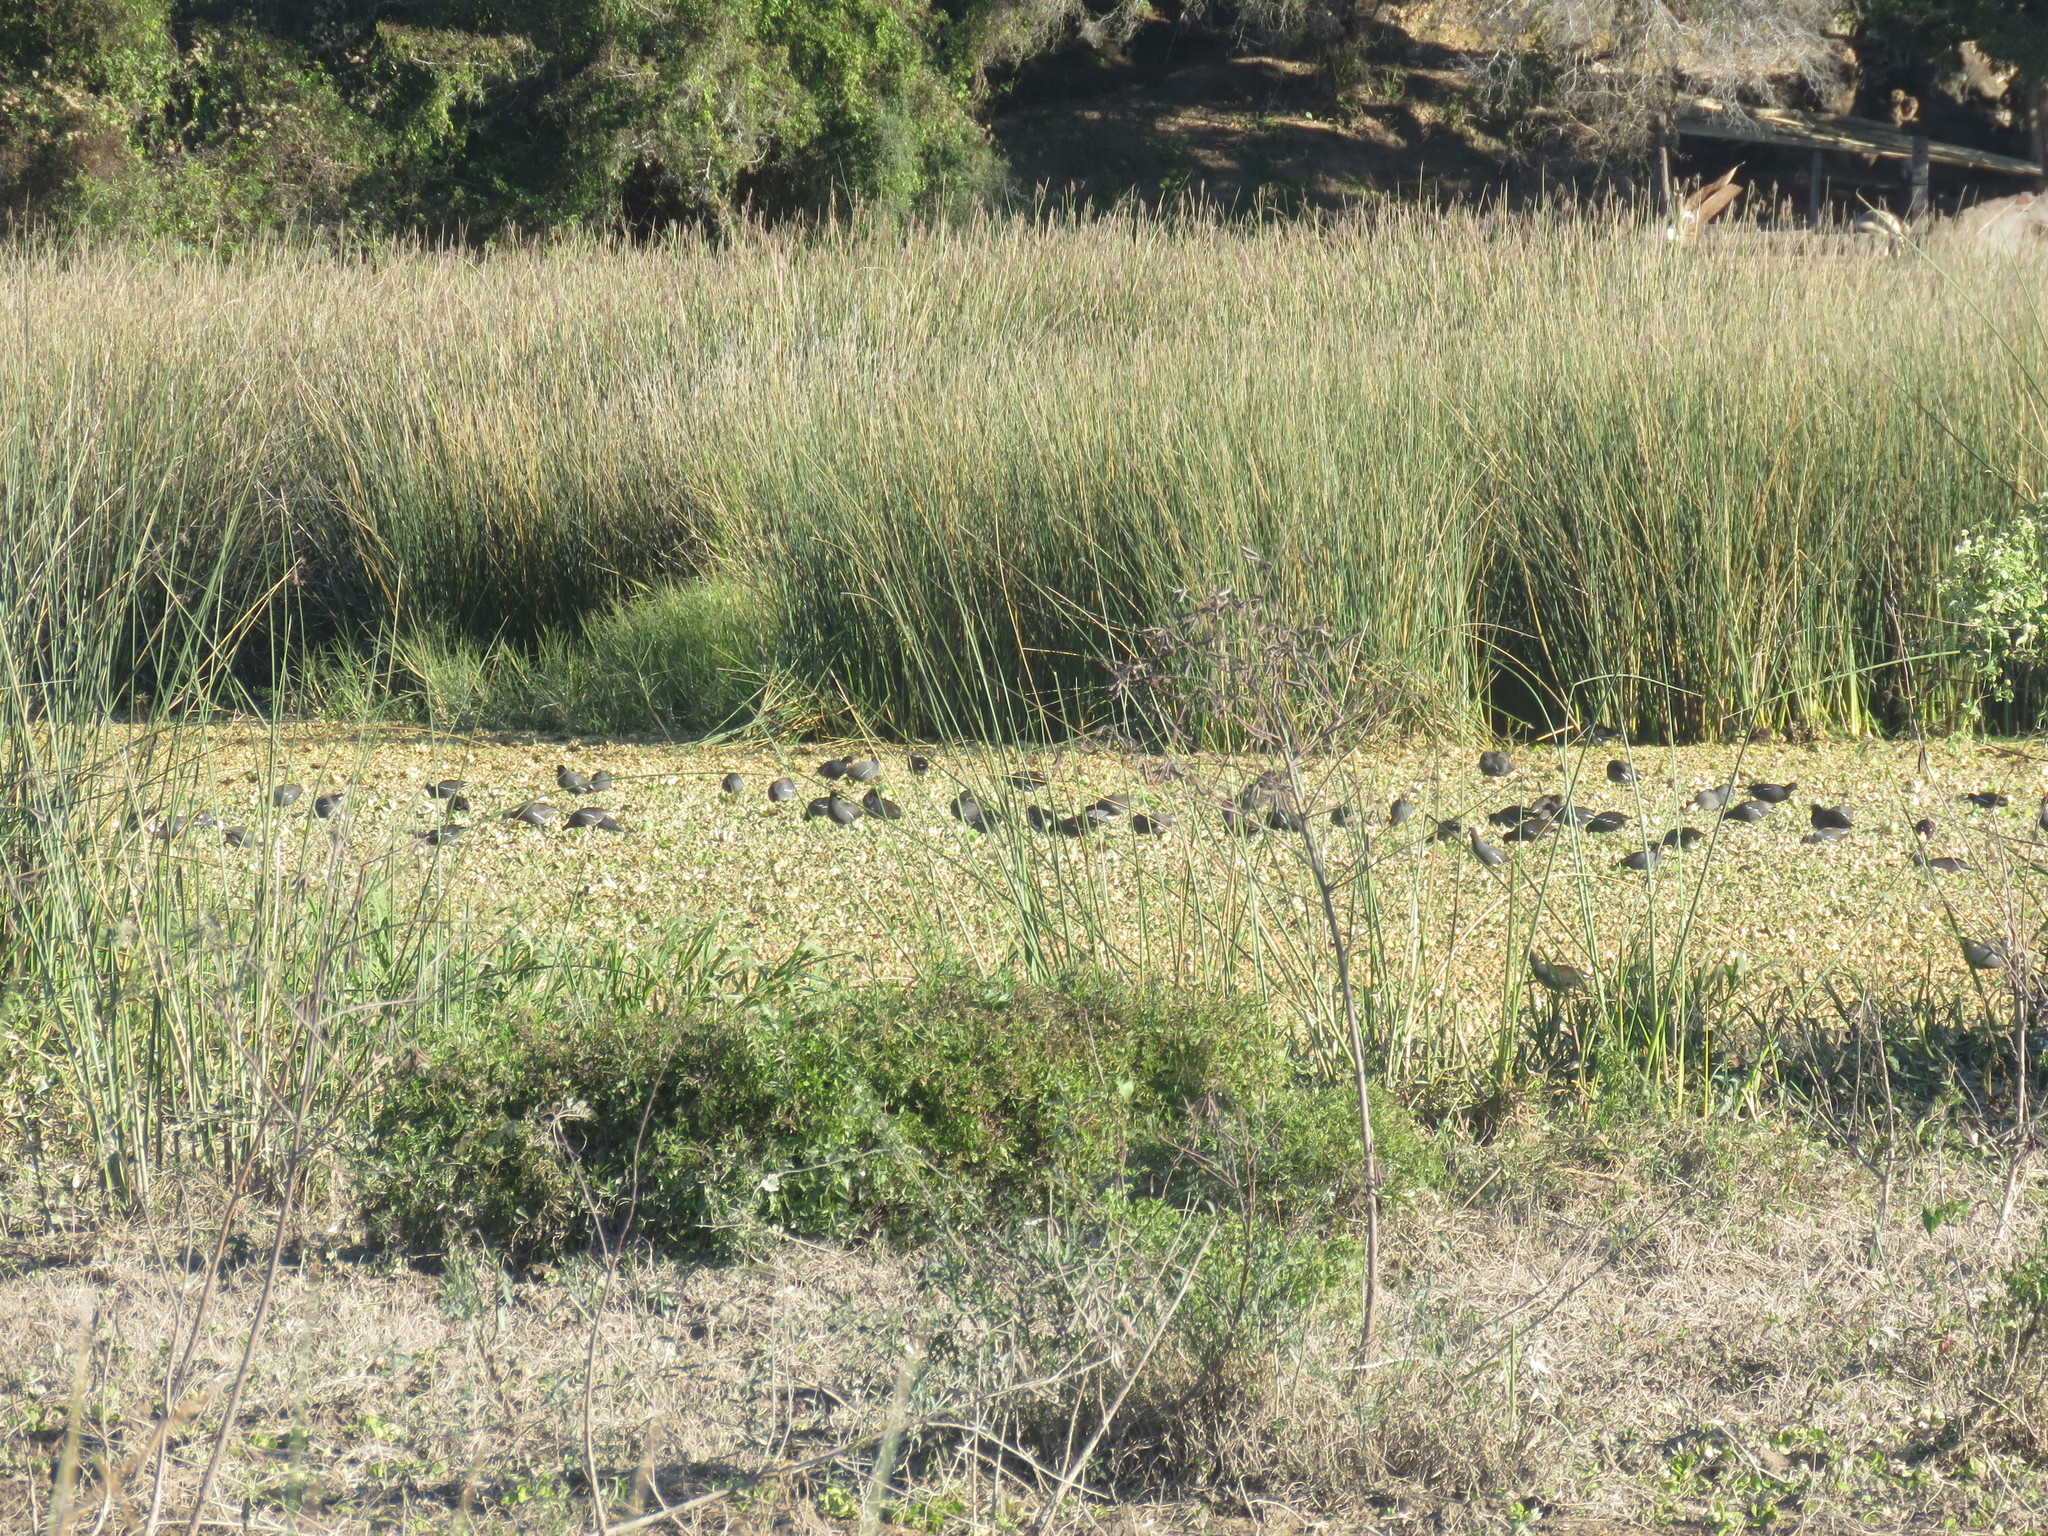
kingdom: Animalia
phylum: Chordata
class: Aves
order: Gruiformes
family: Rallidae
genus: Gallinula
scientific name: Gallinula chloropus
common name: Common moorhen
